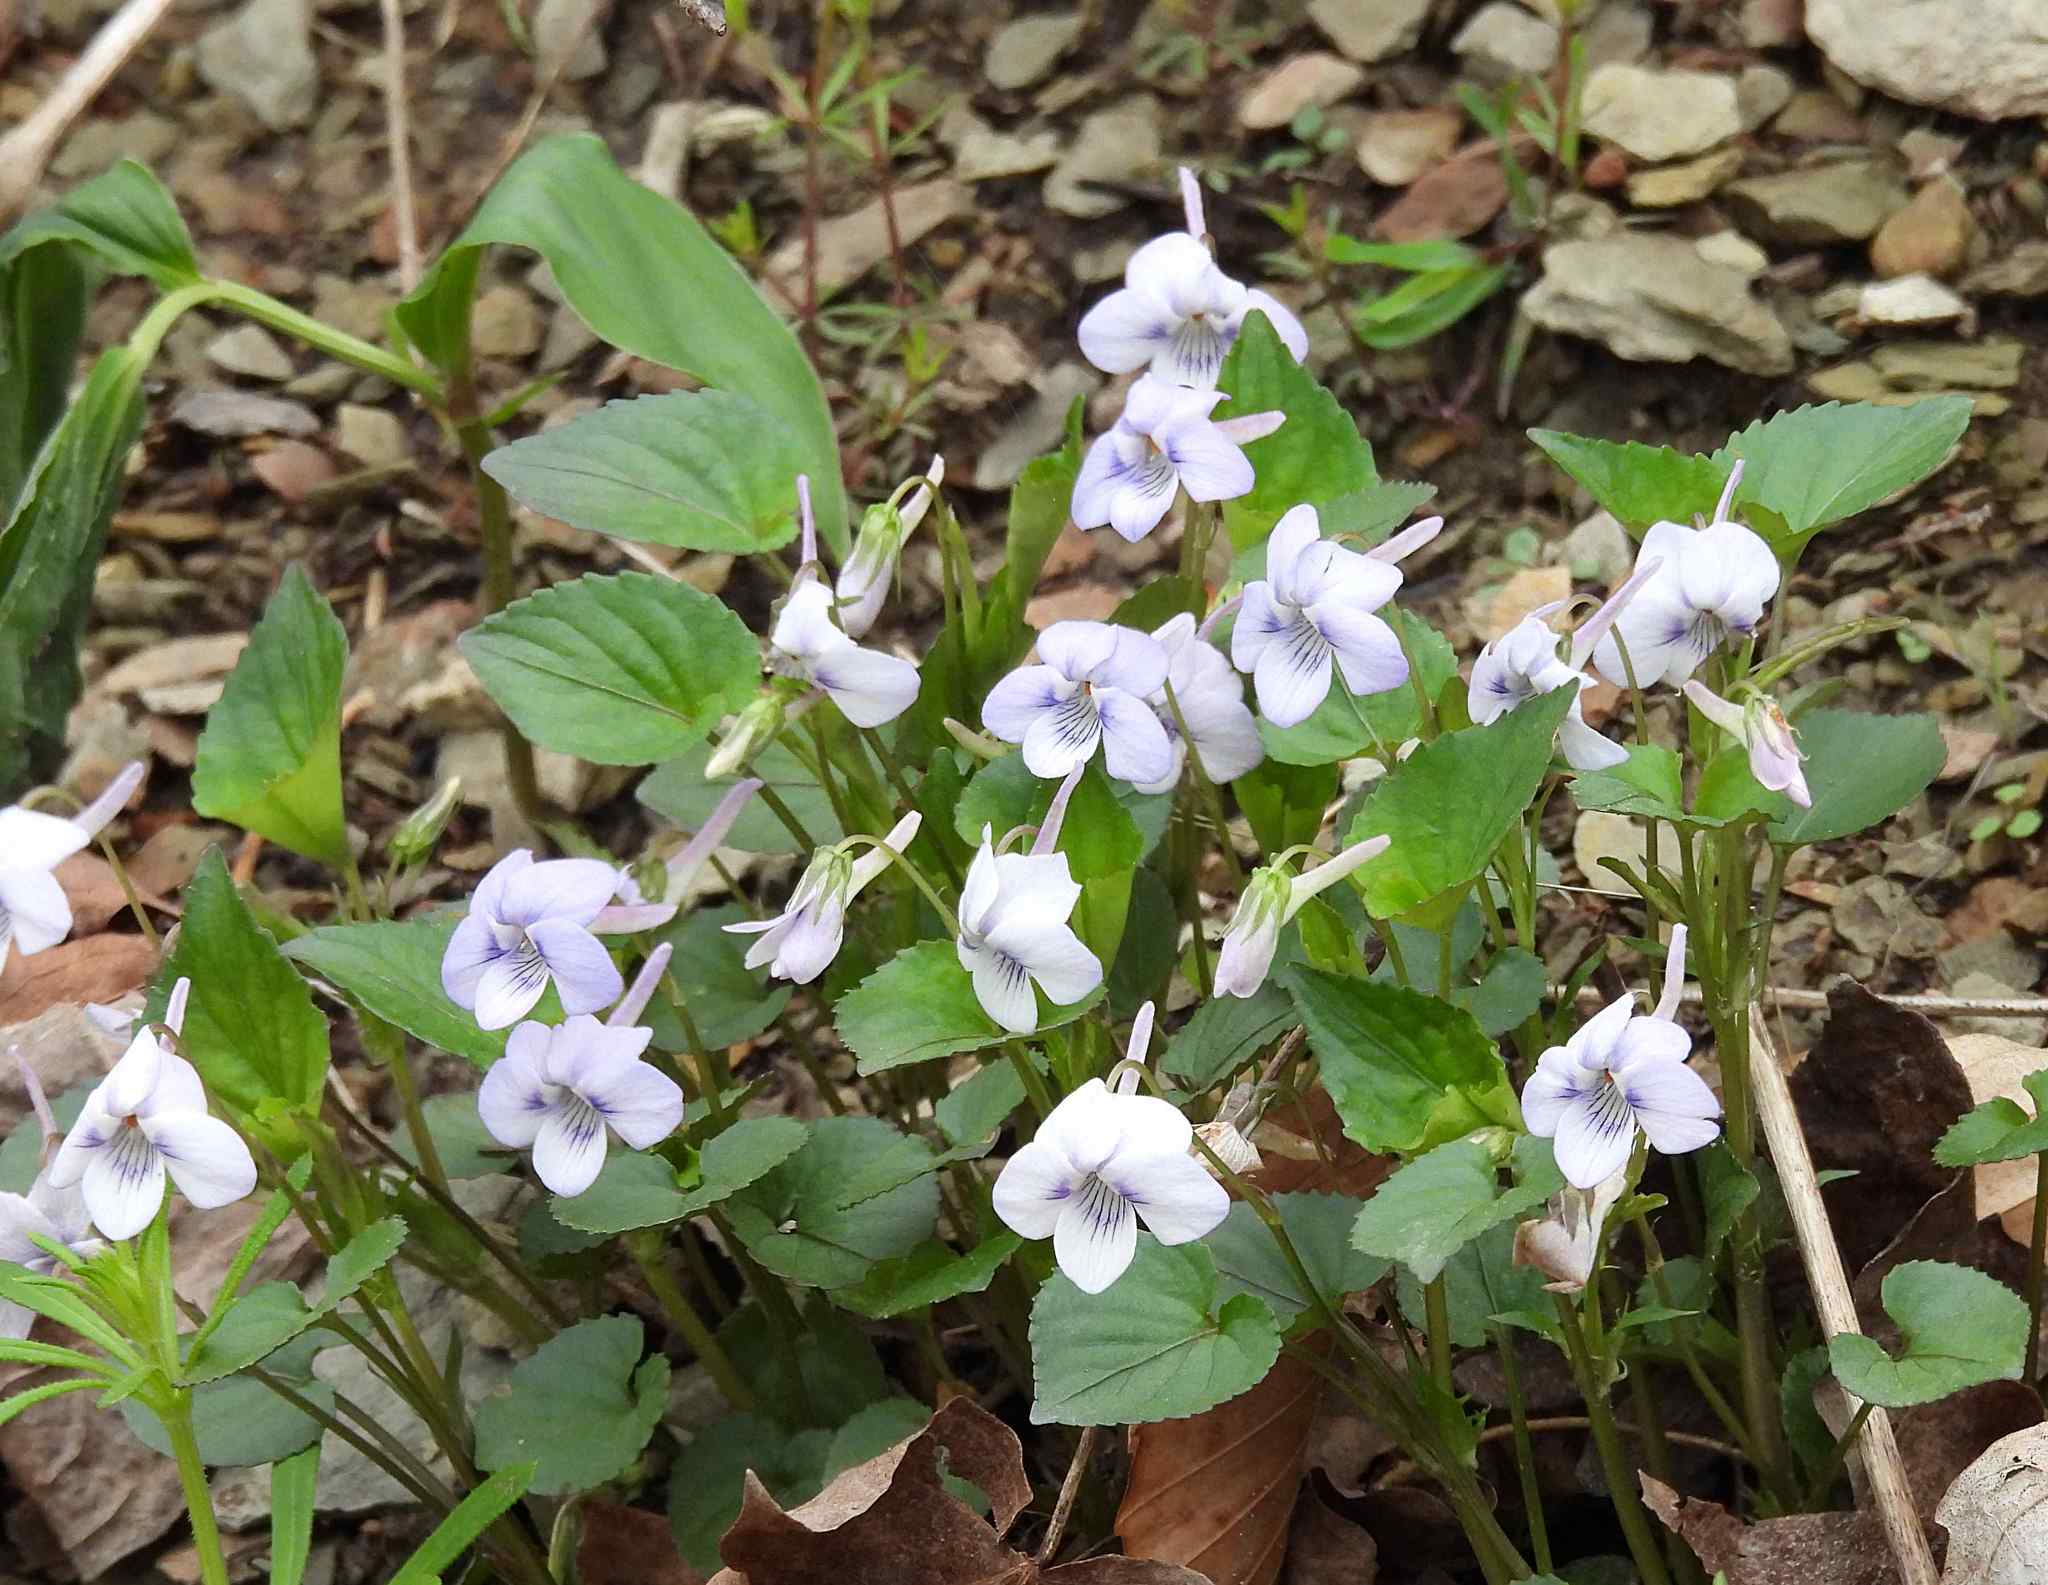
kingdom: Plantae
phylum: Tracheophyta
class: Magnoliopsida
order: Malpighiales
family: Violaceae
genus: Viola
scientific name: Viola rostrata
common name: Long-spur violet
